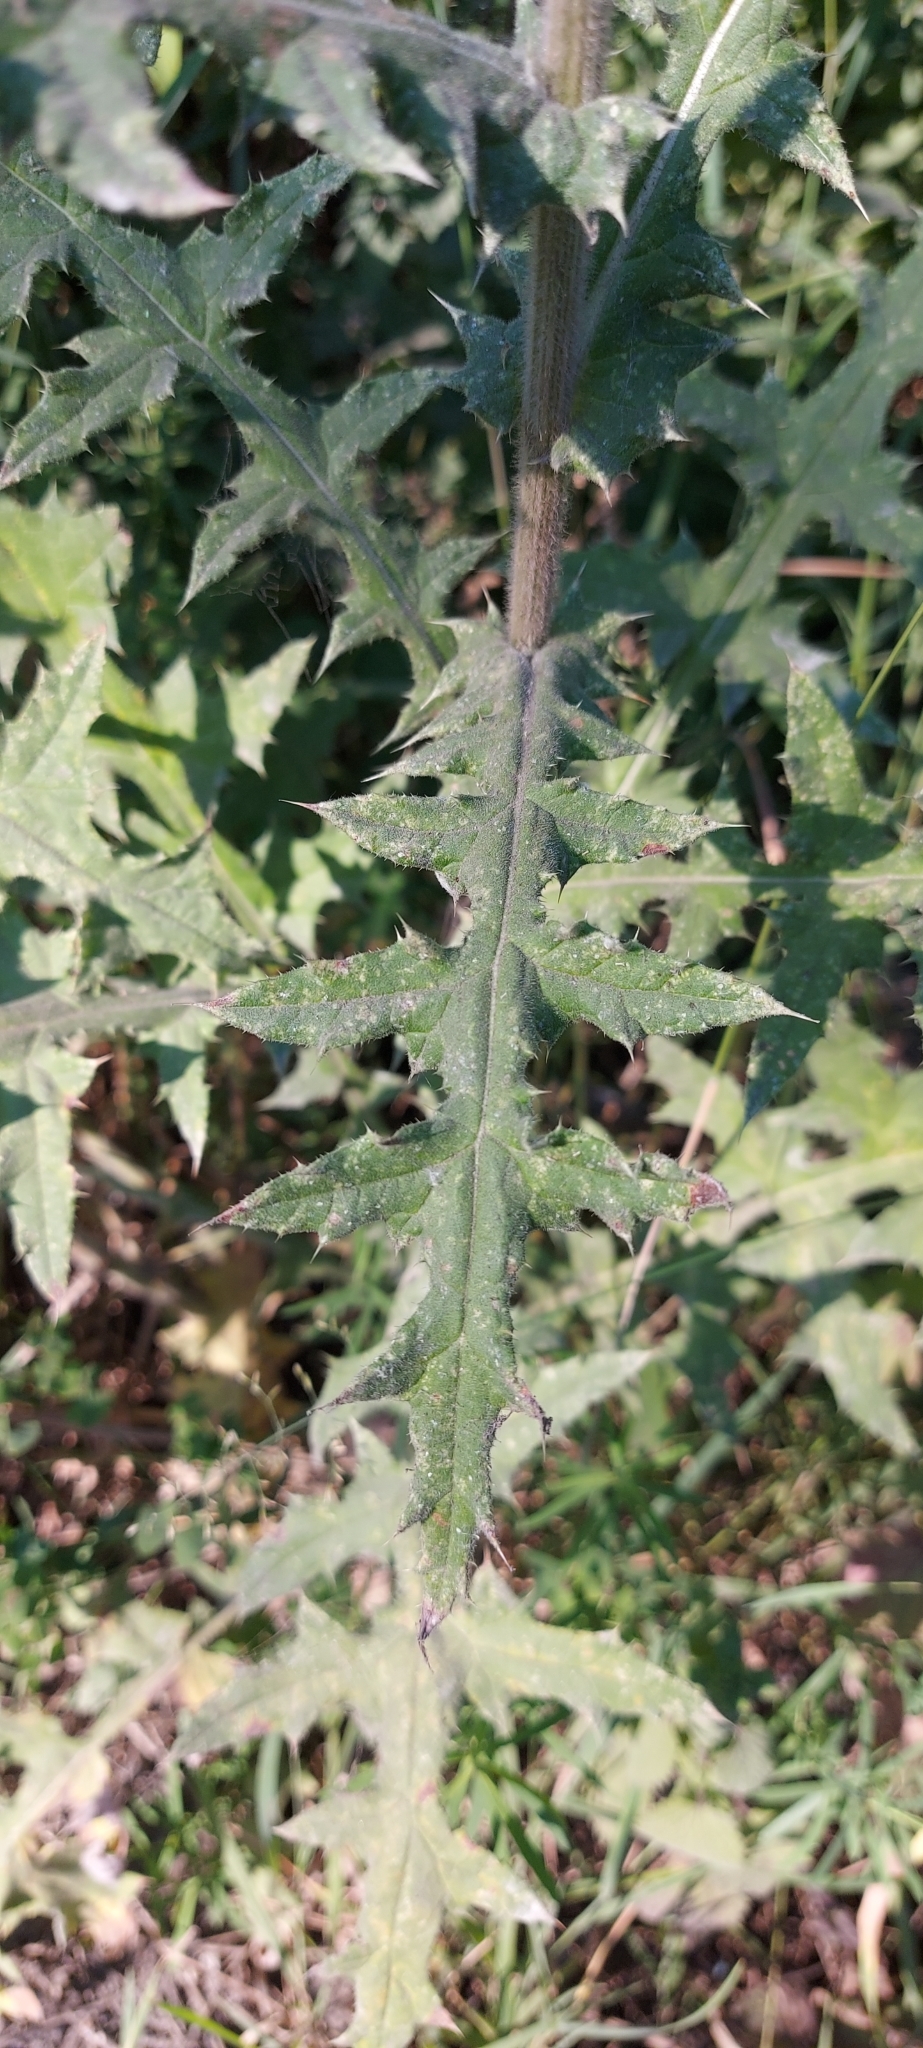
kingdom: Plantae
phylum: Tracheophyta
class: Magnoliopsida
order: Asterales
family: Asteraceae
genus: Echinops
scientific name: Echinops sphaerocephalus
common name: Glandular globe-thistle
